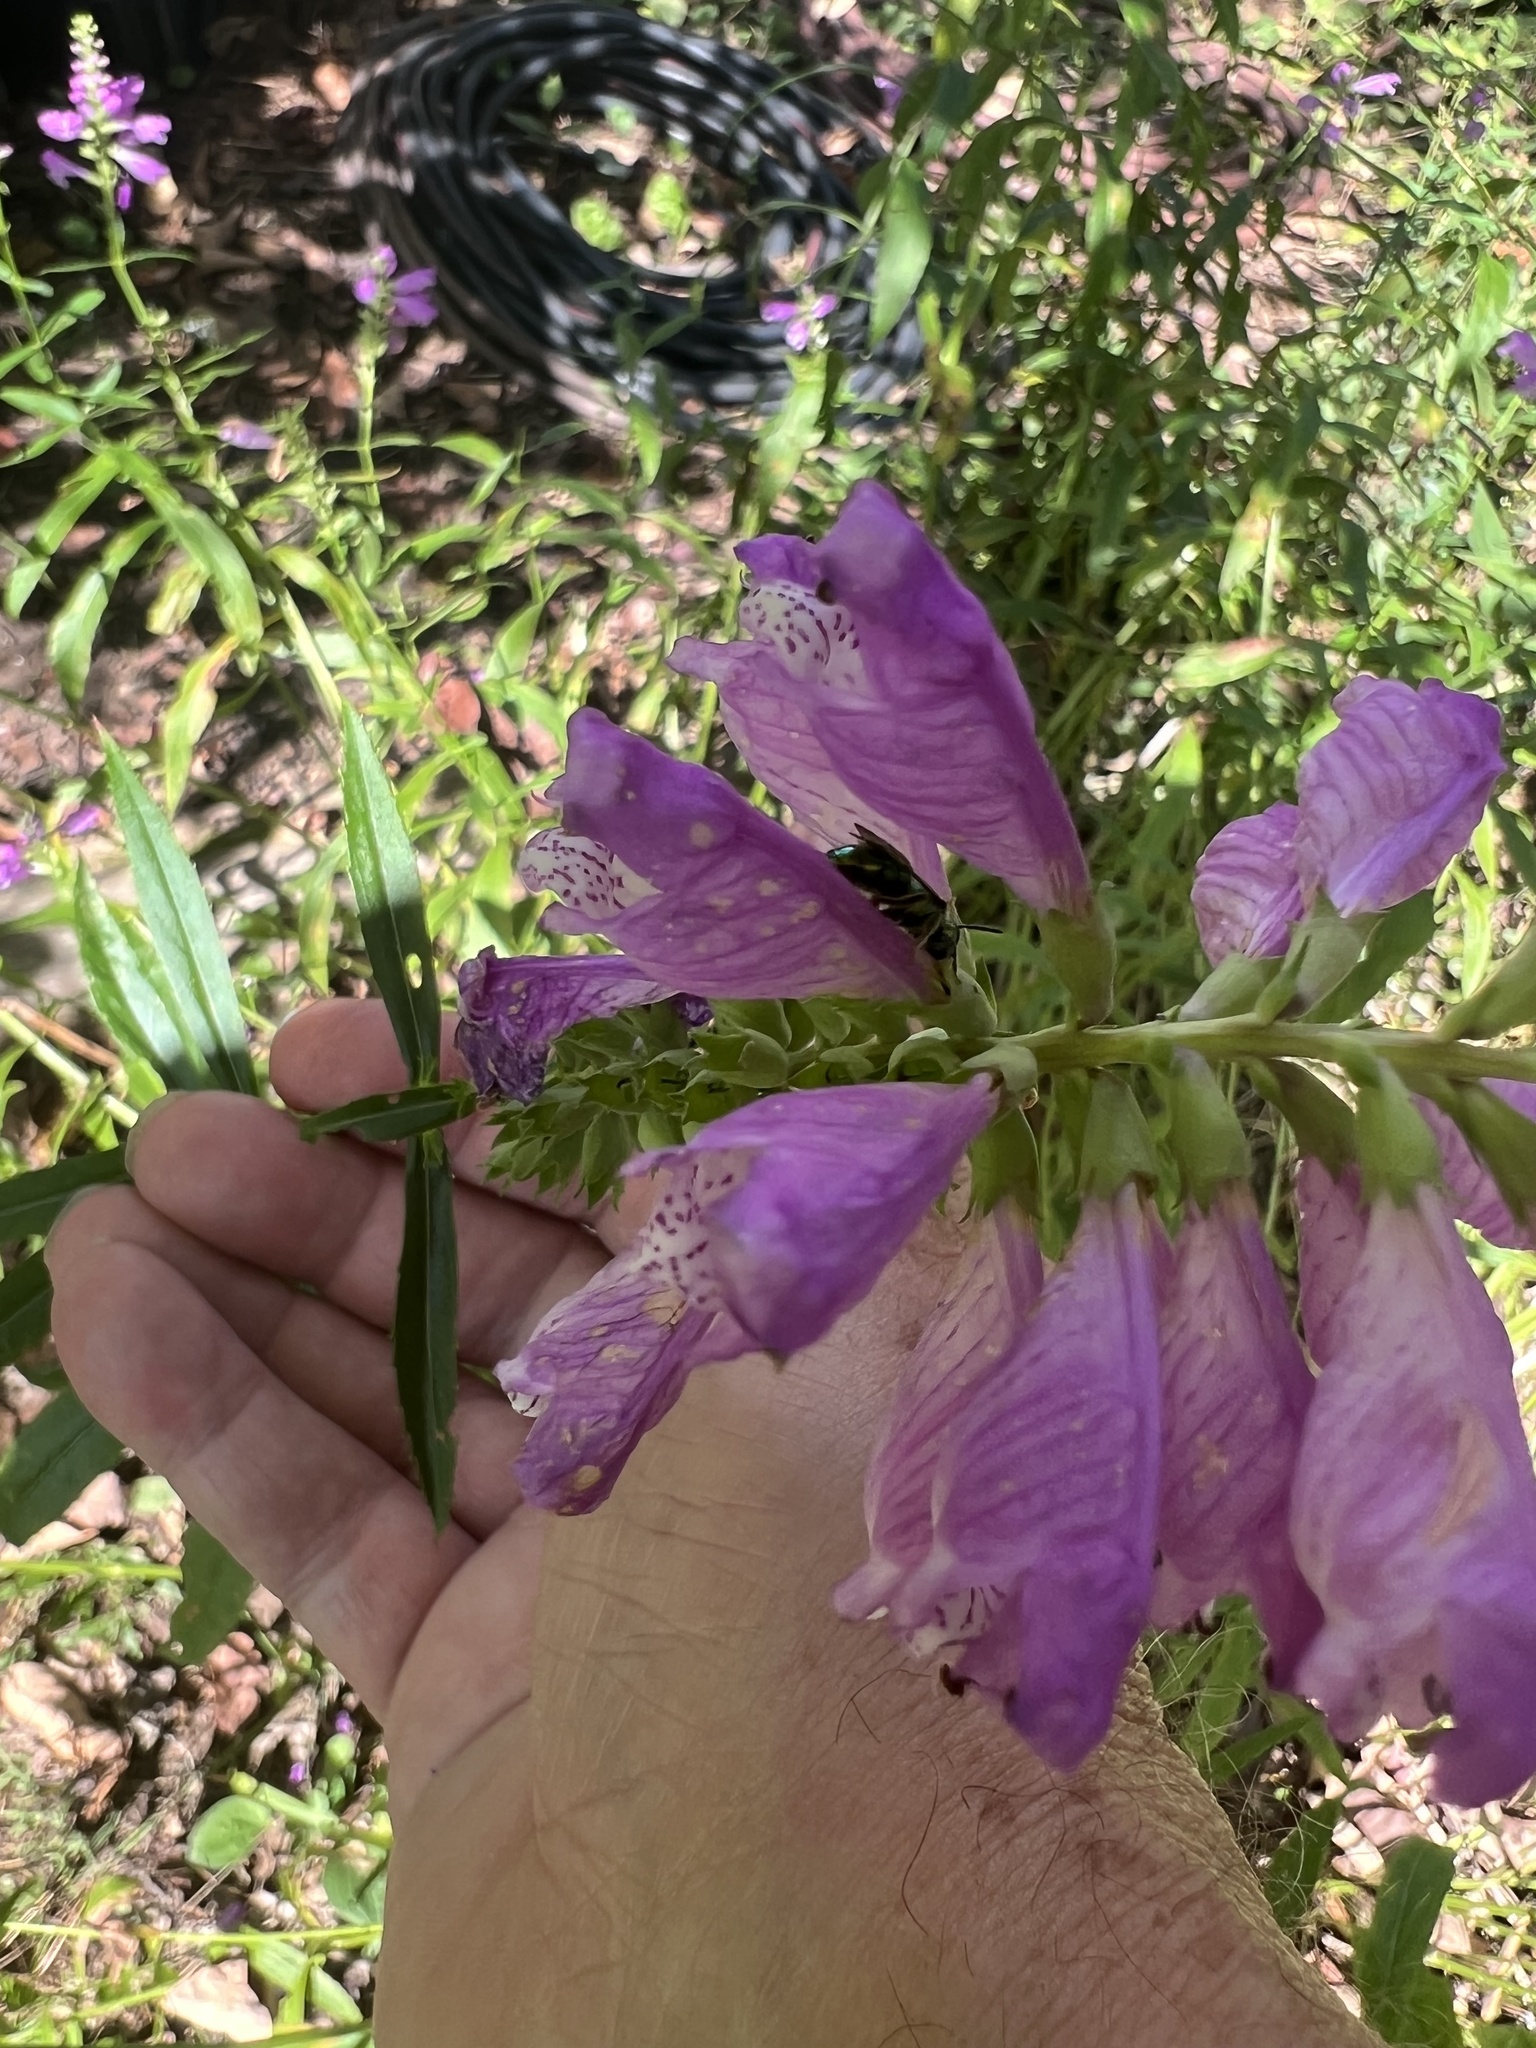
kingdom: Plantae
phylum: Tracheophyta
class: Magnoliopsida
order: Lamiales
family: Lamiaceae
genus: Physostegia
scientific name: Physostegia virginiana
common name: Obedient-plant
